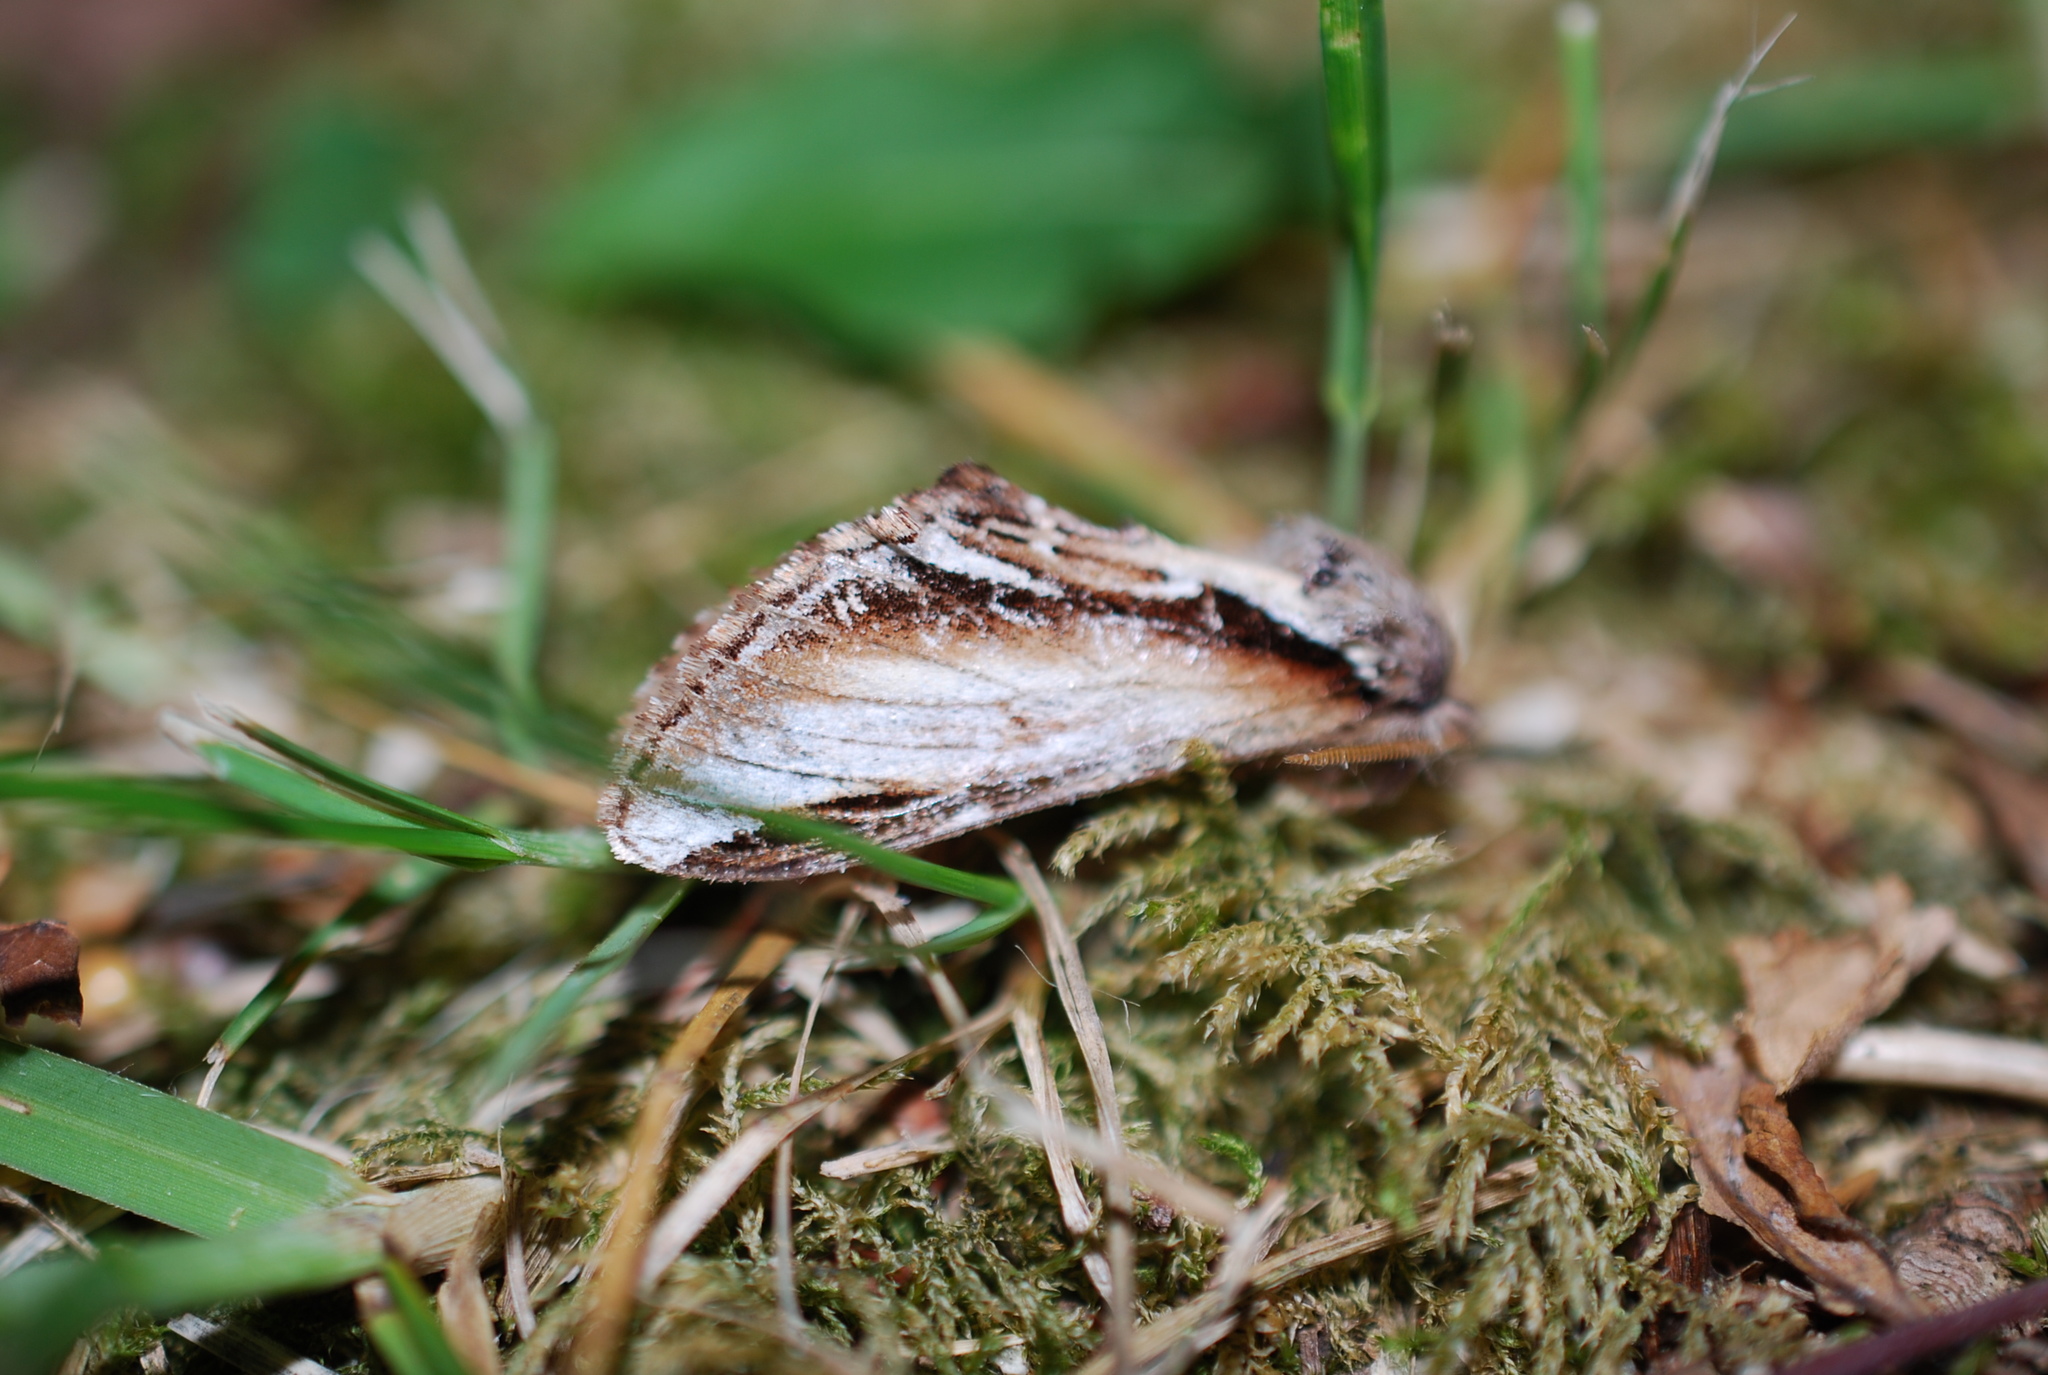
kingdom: Animalia
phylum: Arthropoda
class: Insecta
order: Lepidoptera
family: Notodontidae
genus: Pheosia
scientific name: Pheosia gnoma
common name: Lesser swallow prominent
